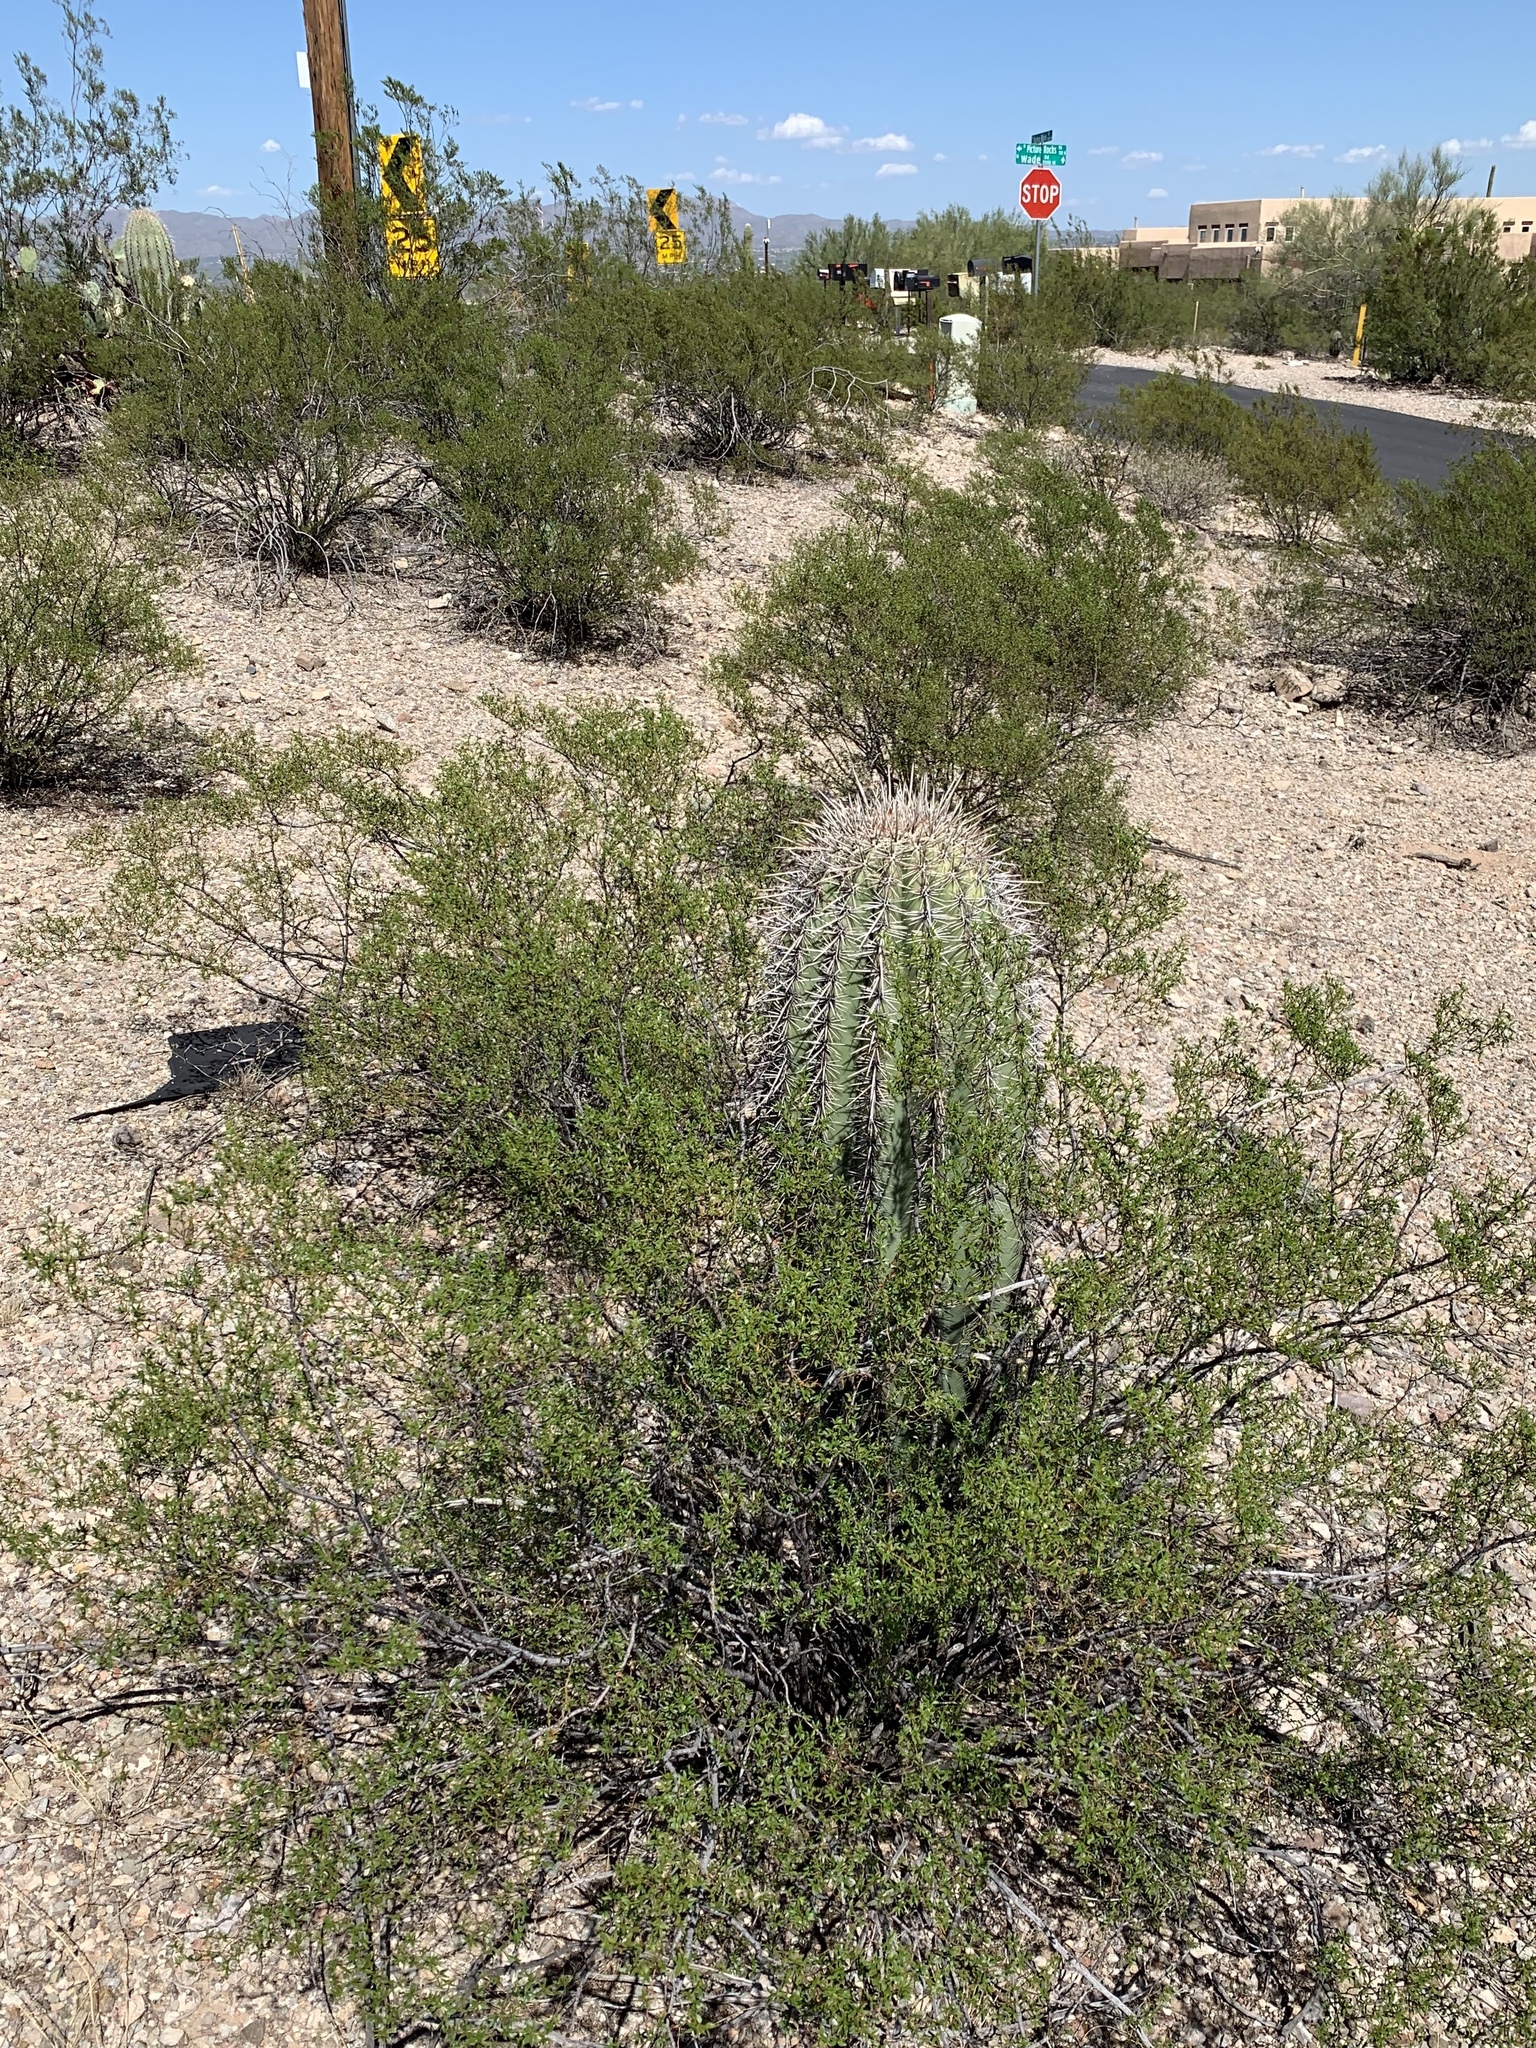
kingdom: Plantae
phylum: Tracheophyta
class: Magnoliopsida
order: Zygophyllales
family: Zygophyllaceae
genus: Larrea
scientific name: Larrea tridentata
